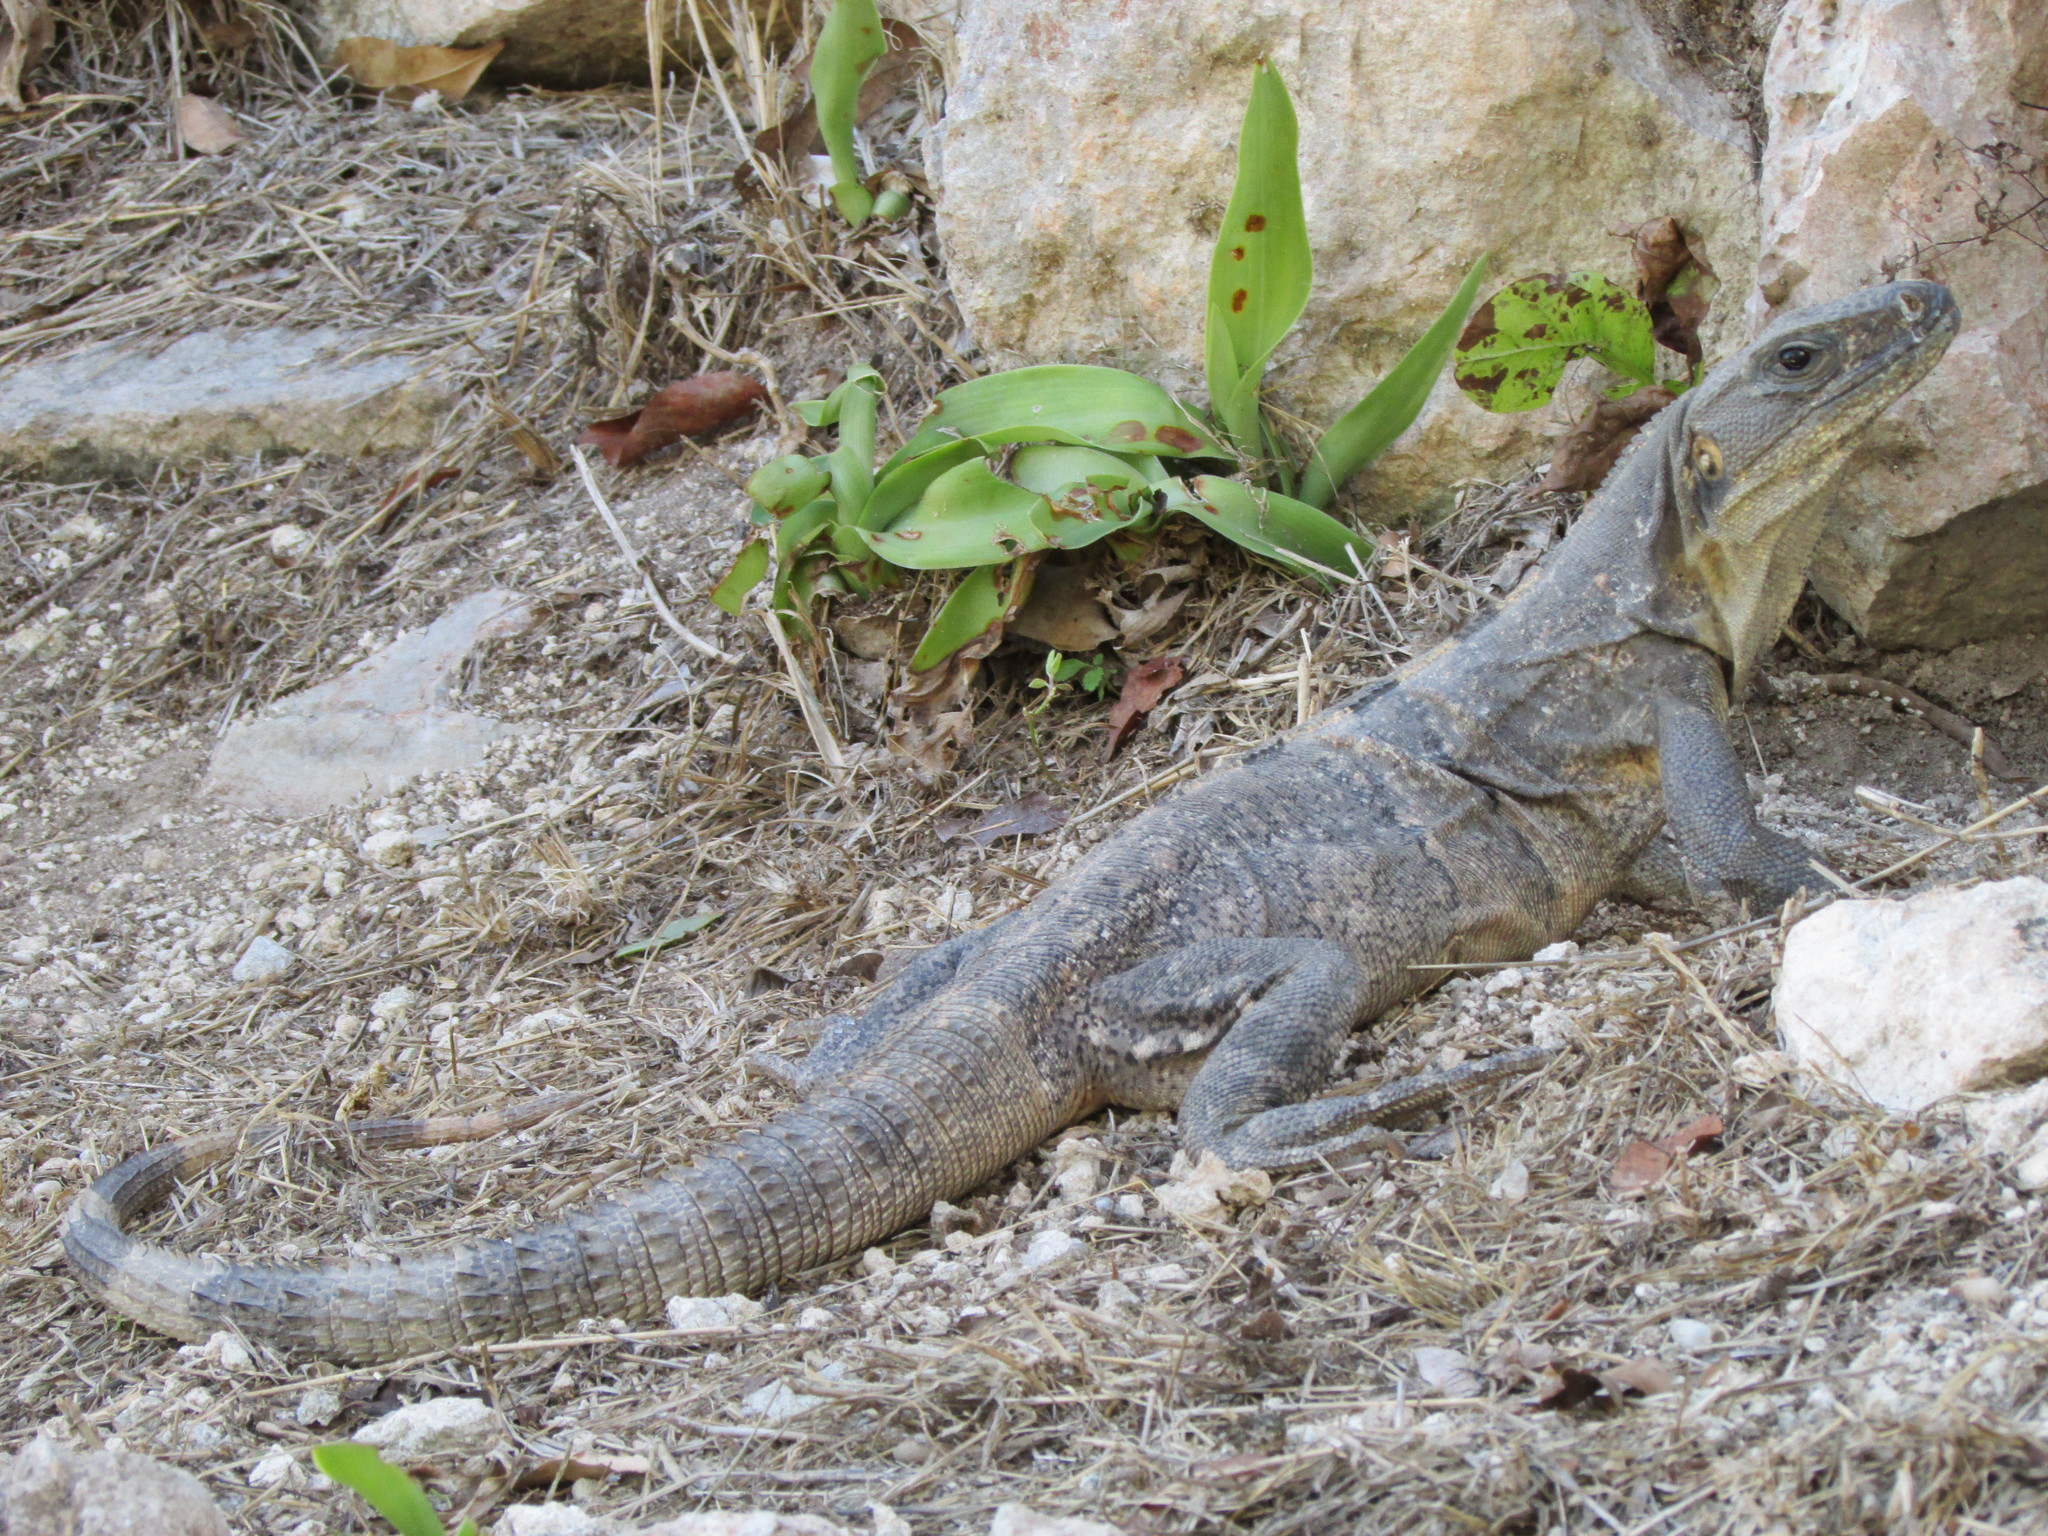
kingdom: Animalia
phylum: Chordata
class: Squamata
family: Iguanidae
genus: Ctenosaura
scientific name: Ctenosaura similis
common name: Black spiny-tailed iguana
